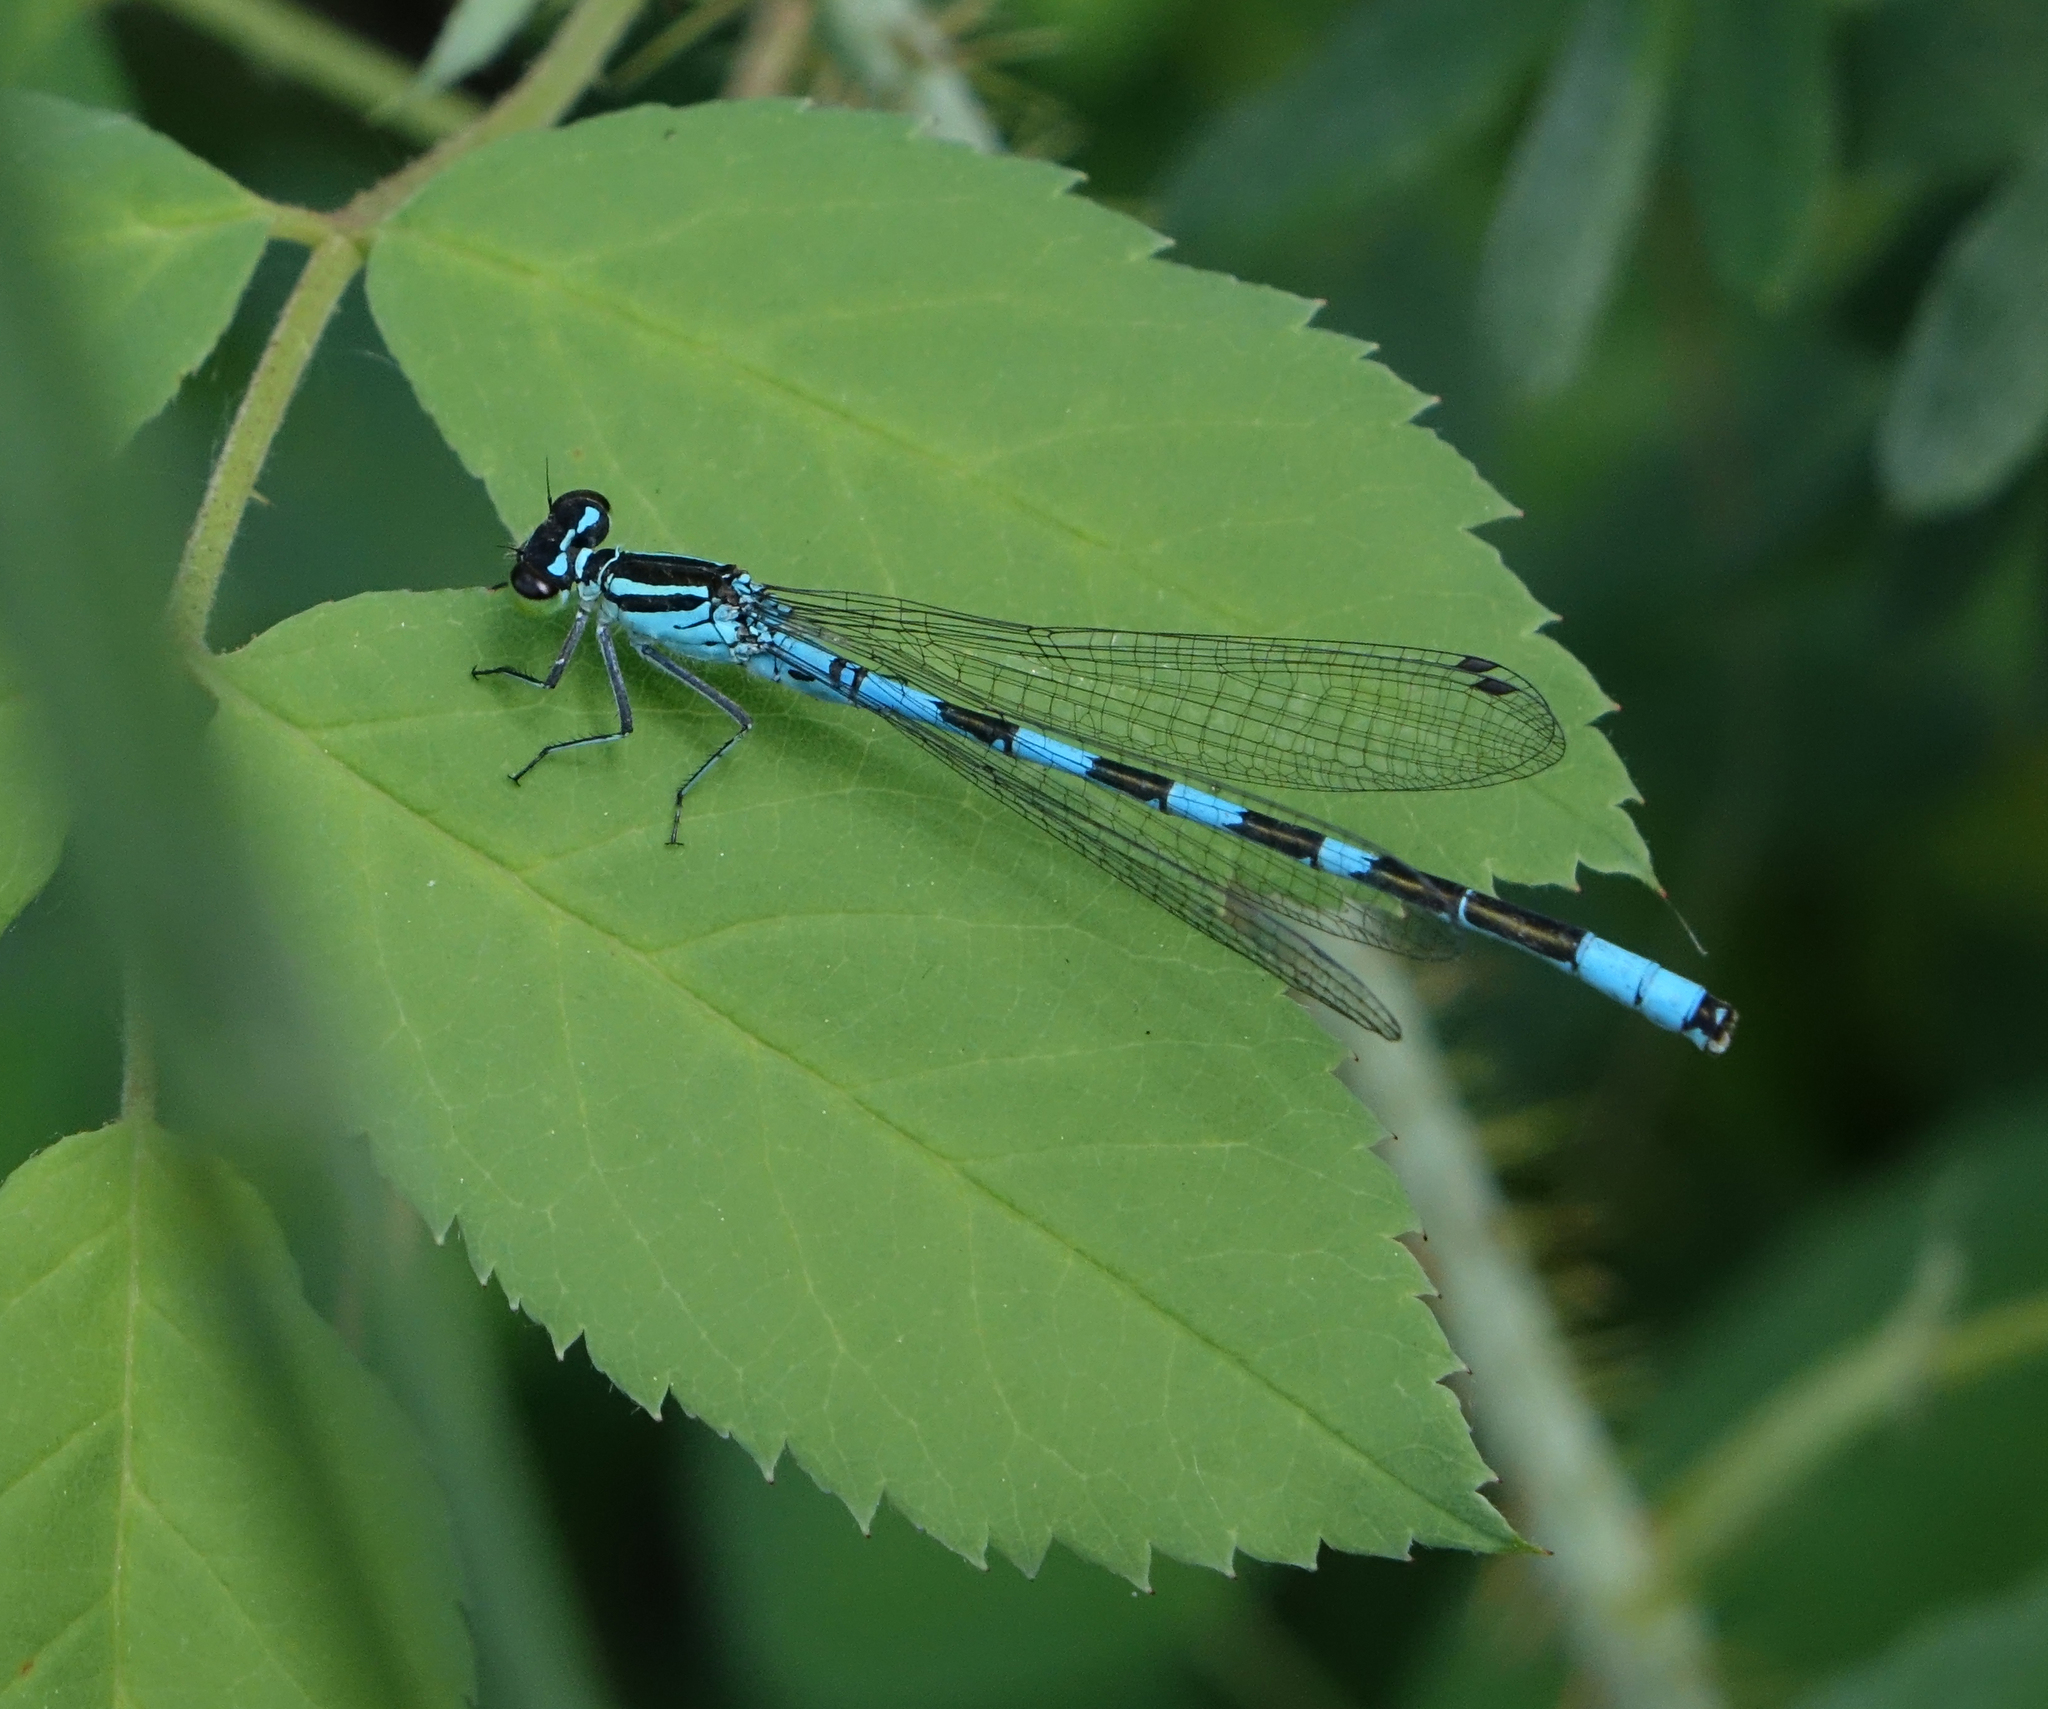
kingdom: Animalia
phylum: Arthropoda
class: Insecta
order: Odonata
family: Coenagrionidae
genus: Coenagrion
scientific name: Coenagrion hastulatum
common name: Spearhead bluet
